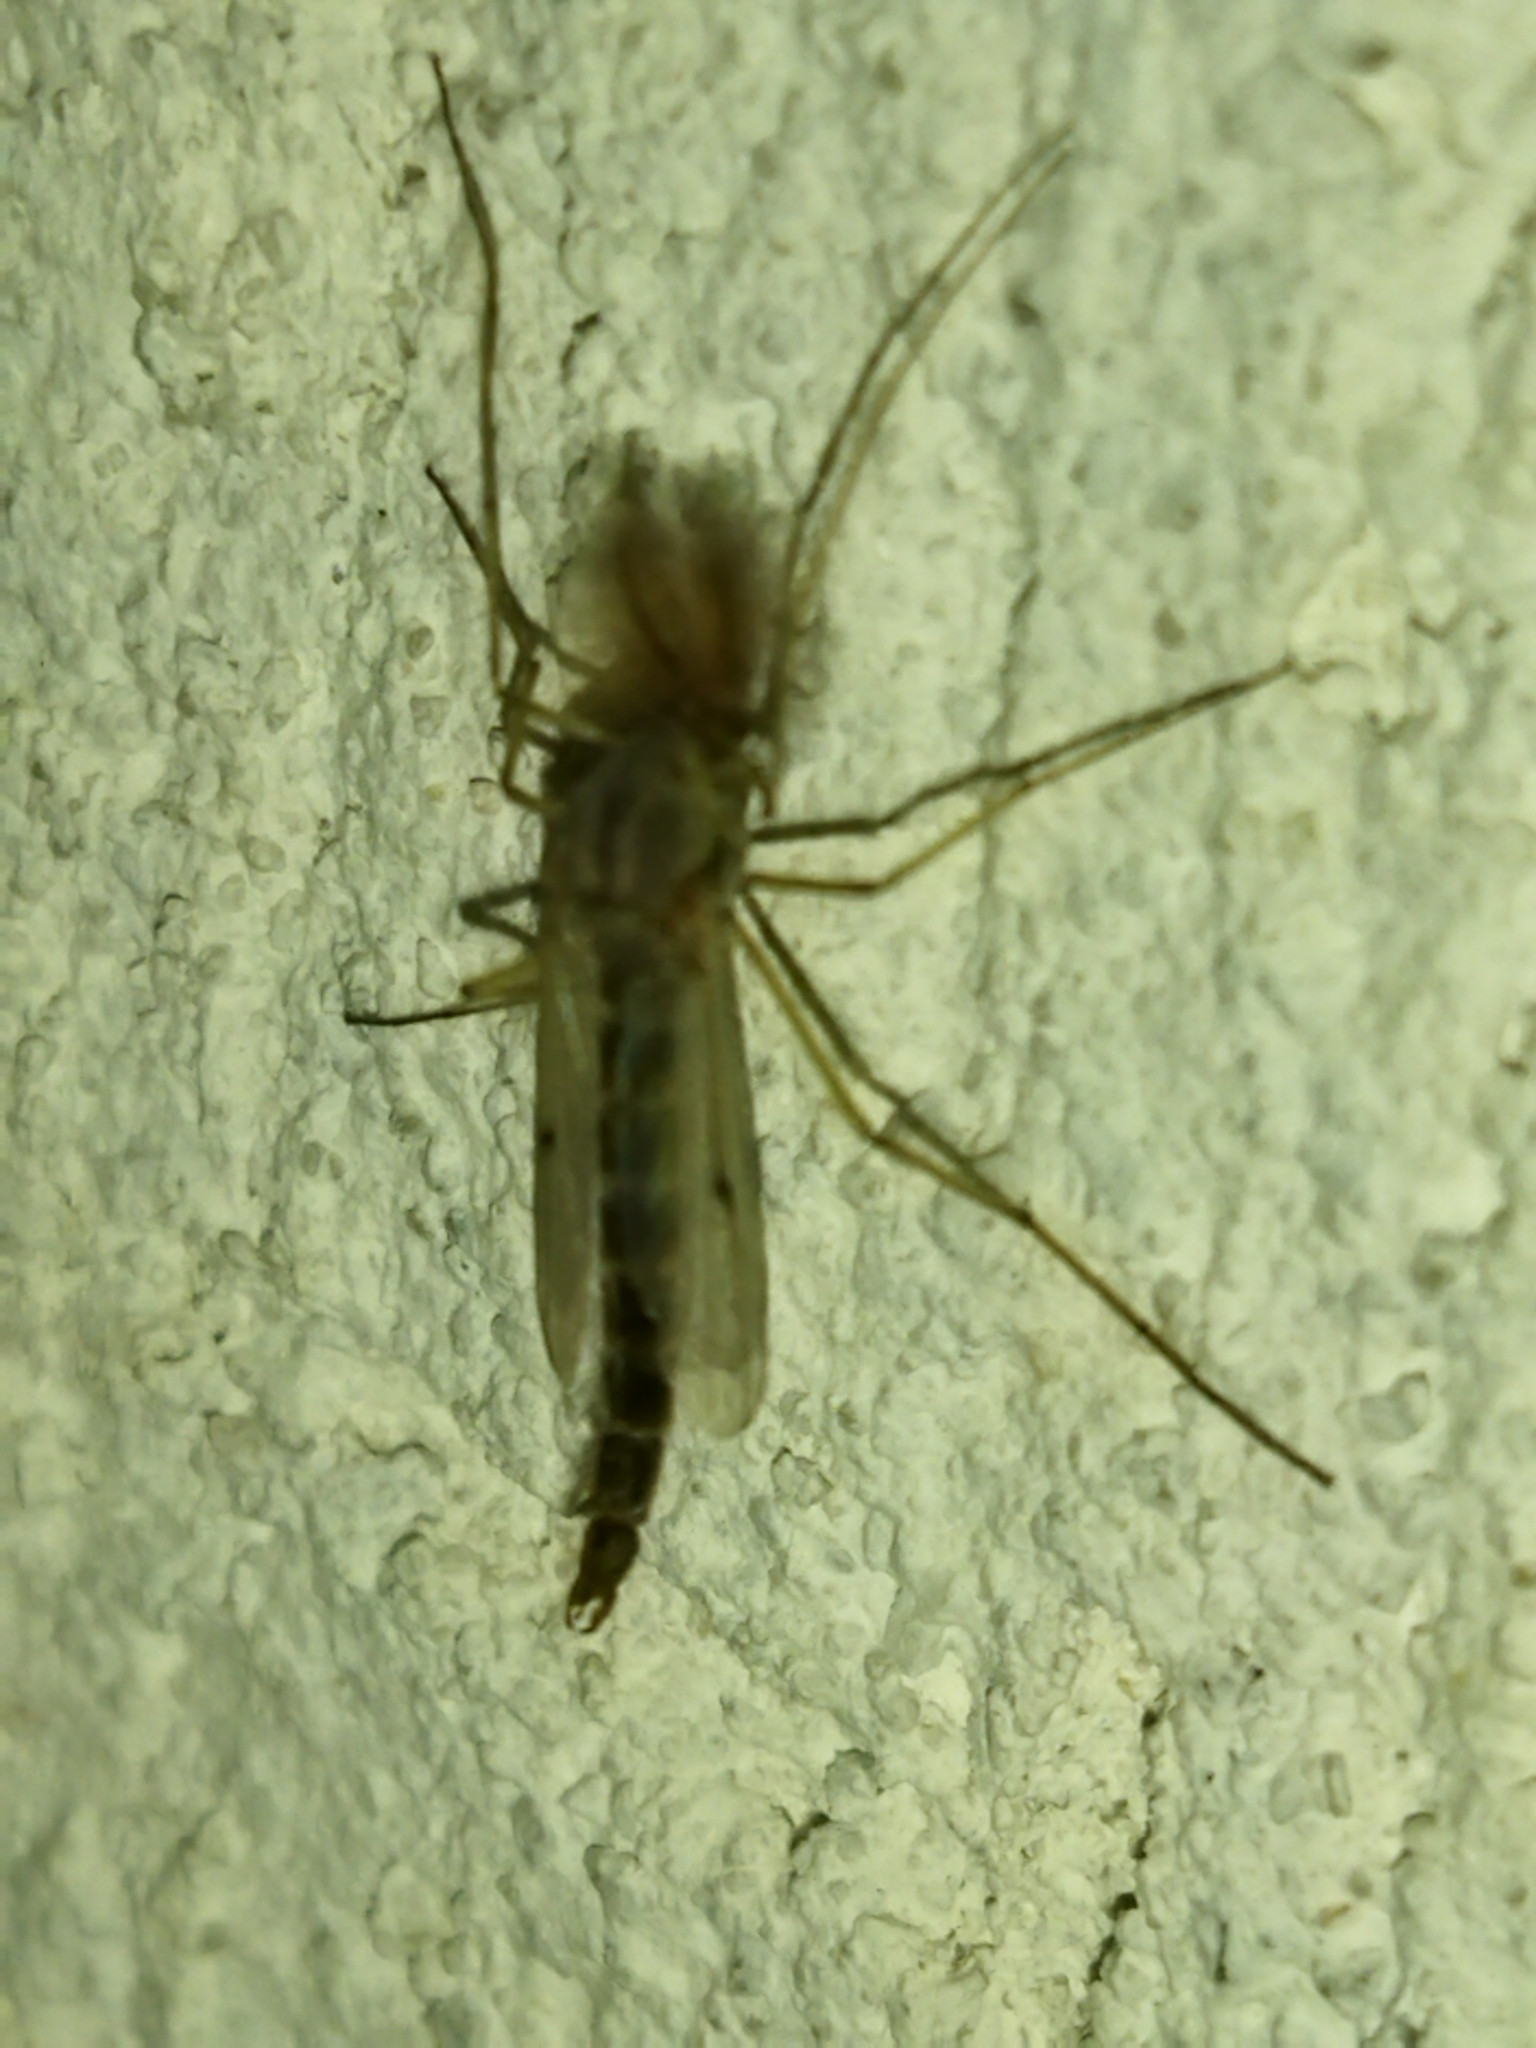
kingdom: Animalia
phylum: Arthropoda
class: Insecta
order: Diptera
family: Chironomidae
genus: Glyptotendipes
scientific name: Glyptotendipes barbipes
